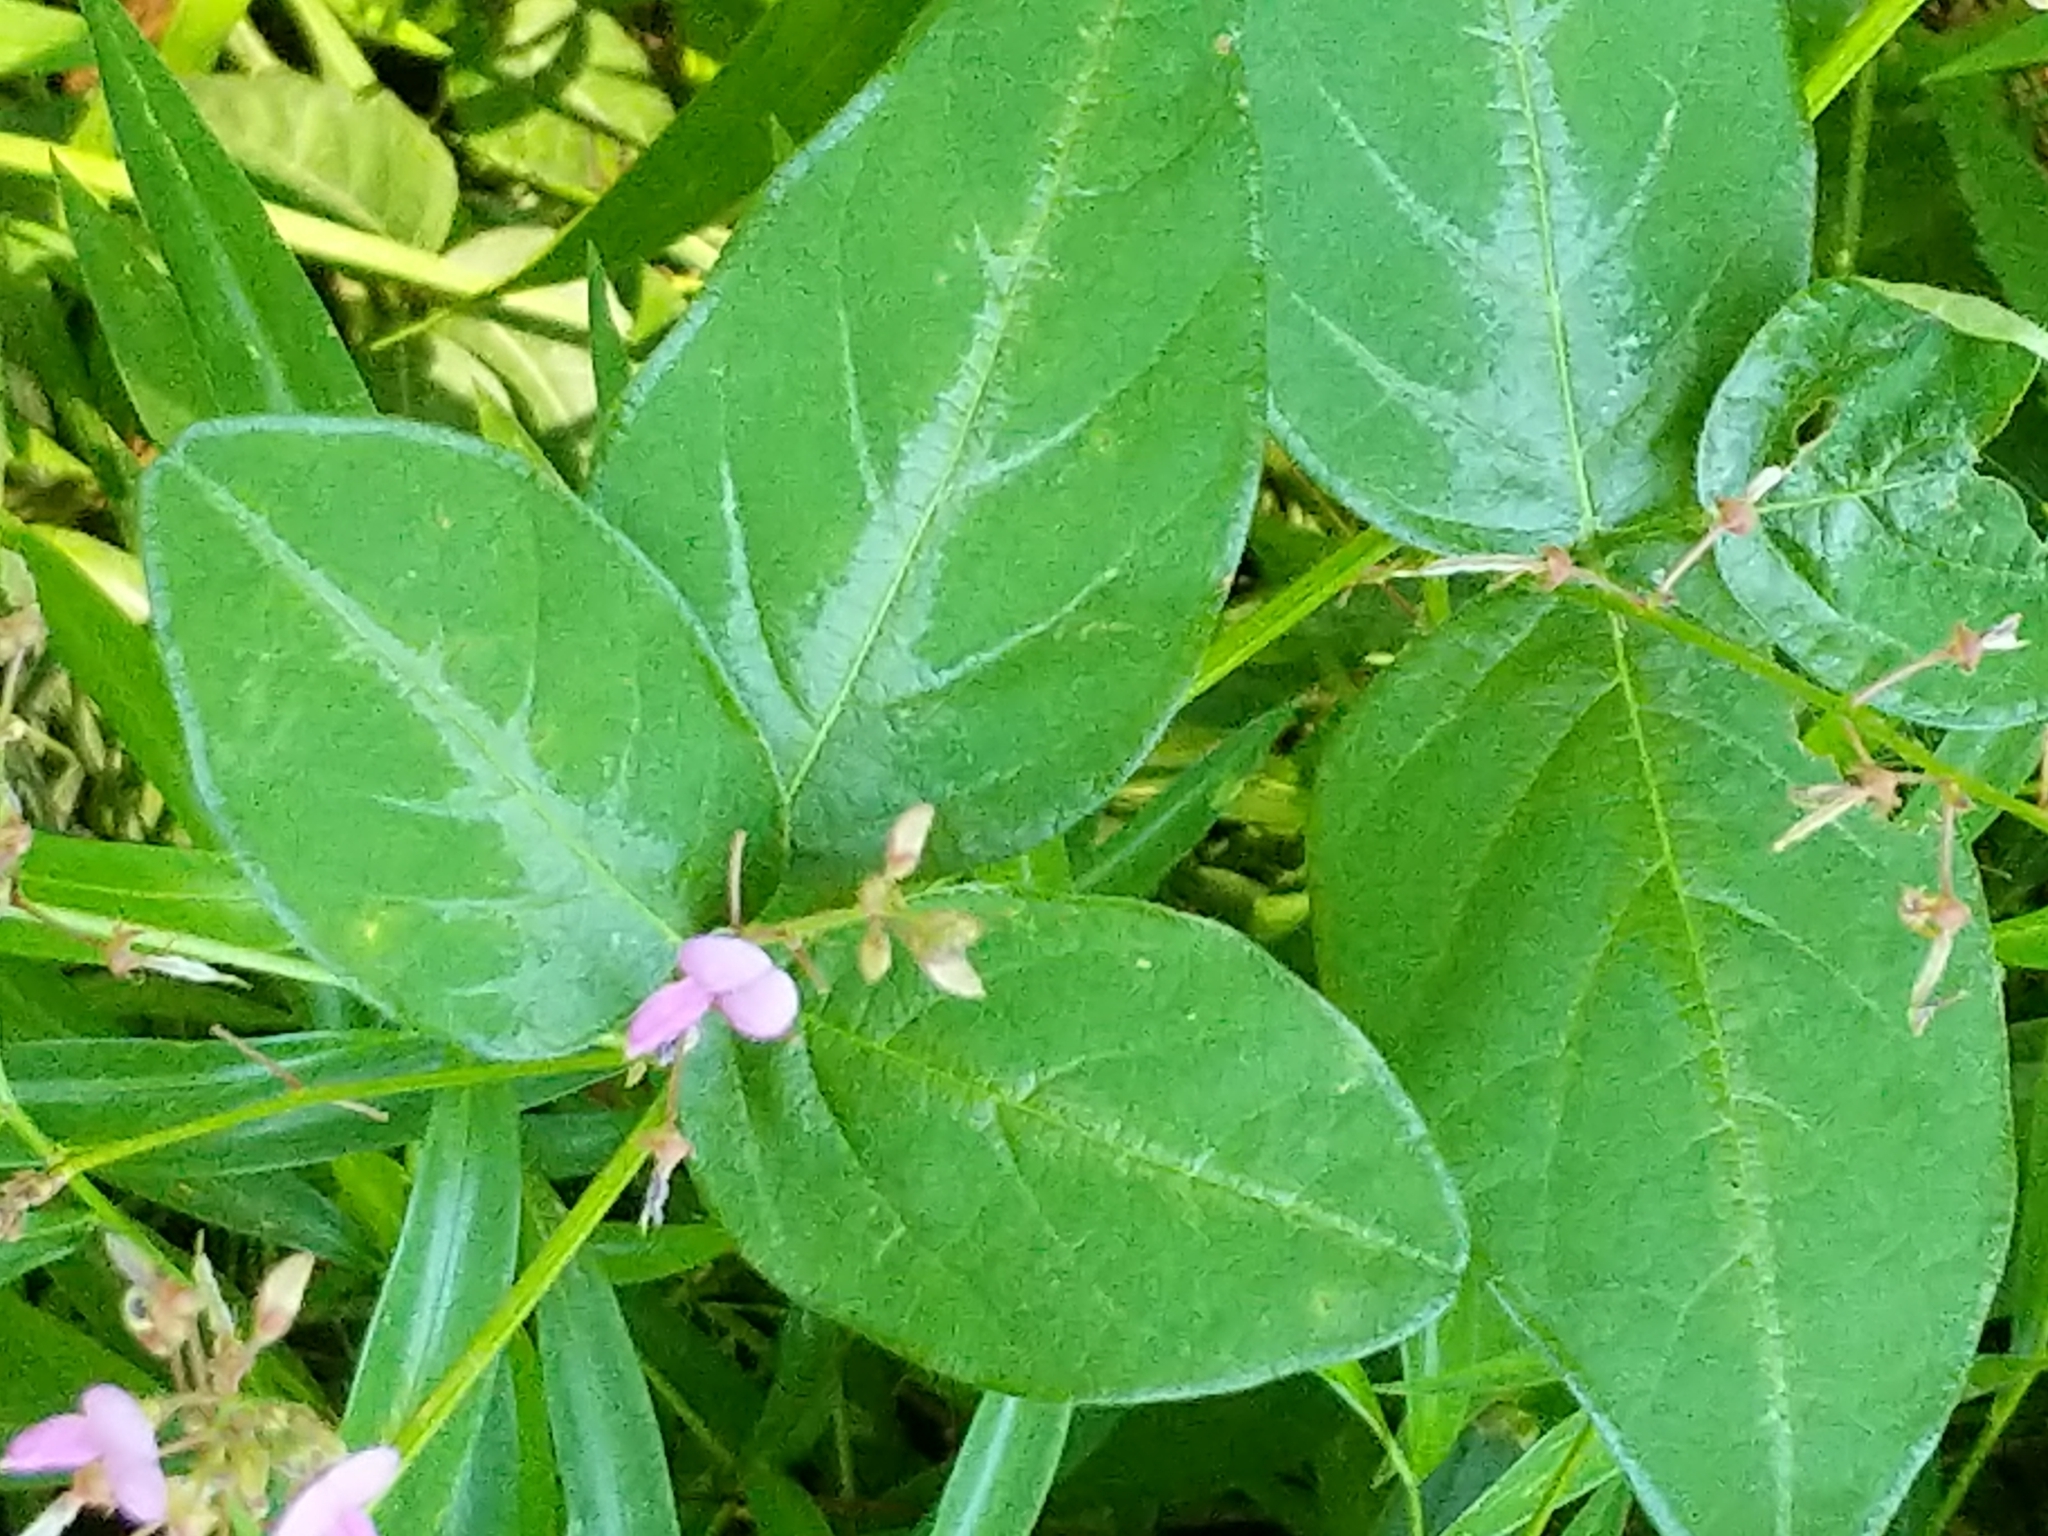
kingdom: Plantae
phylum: Tracheophyta
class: Magnoliopsida
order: Fabales
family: Fabaceae
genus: Desmodium
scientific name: Desmodium perplexum
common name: Perplexed tick trefoil
